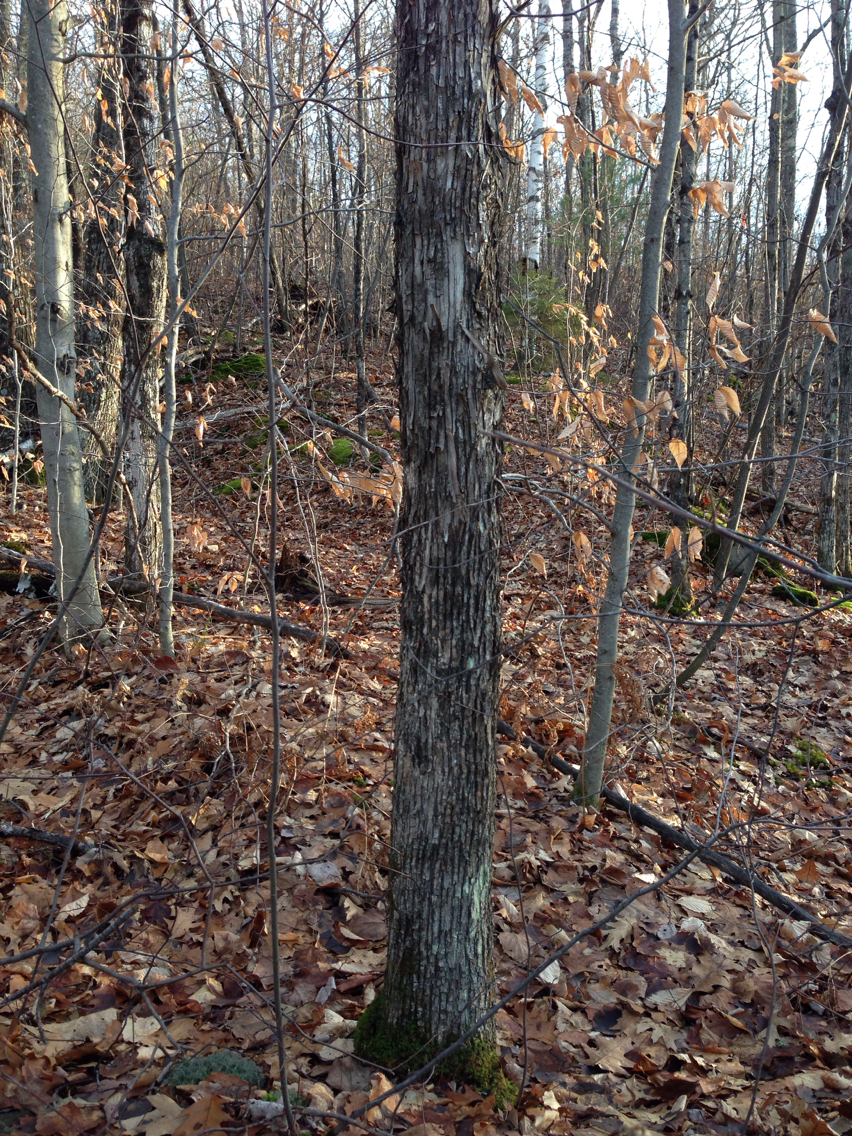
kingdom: Plantae
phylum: Tracheophyta
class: Magnoliopsida
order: Fagales
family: Betulaceae
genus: Ostrya
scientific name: Ostrya virginiana
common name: Ironwood
